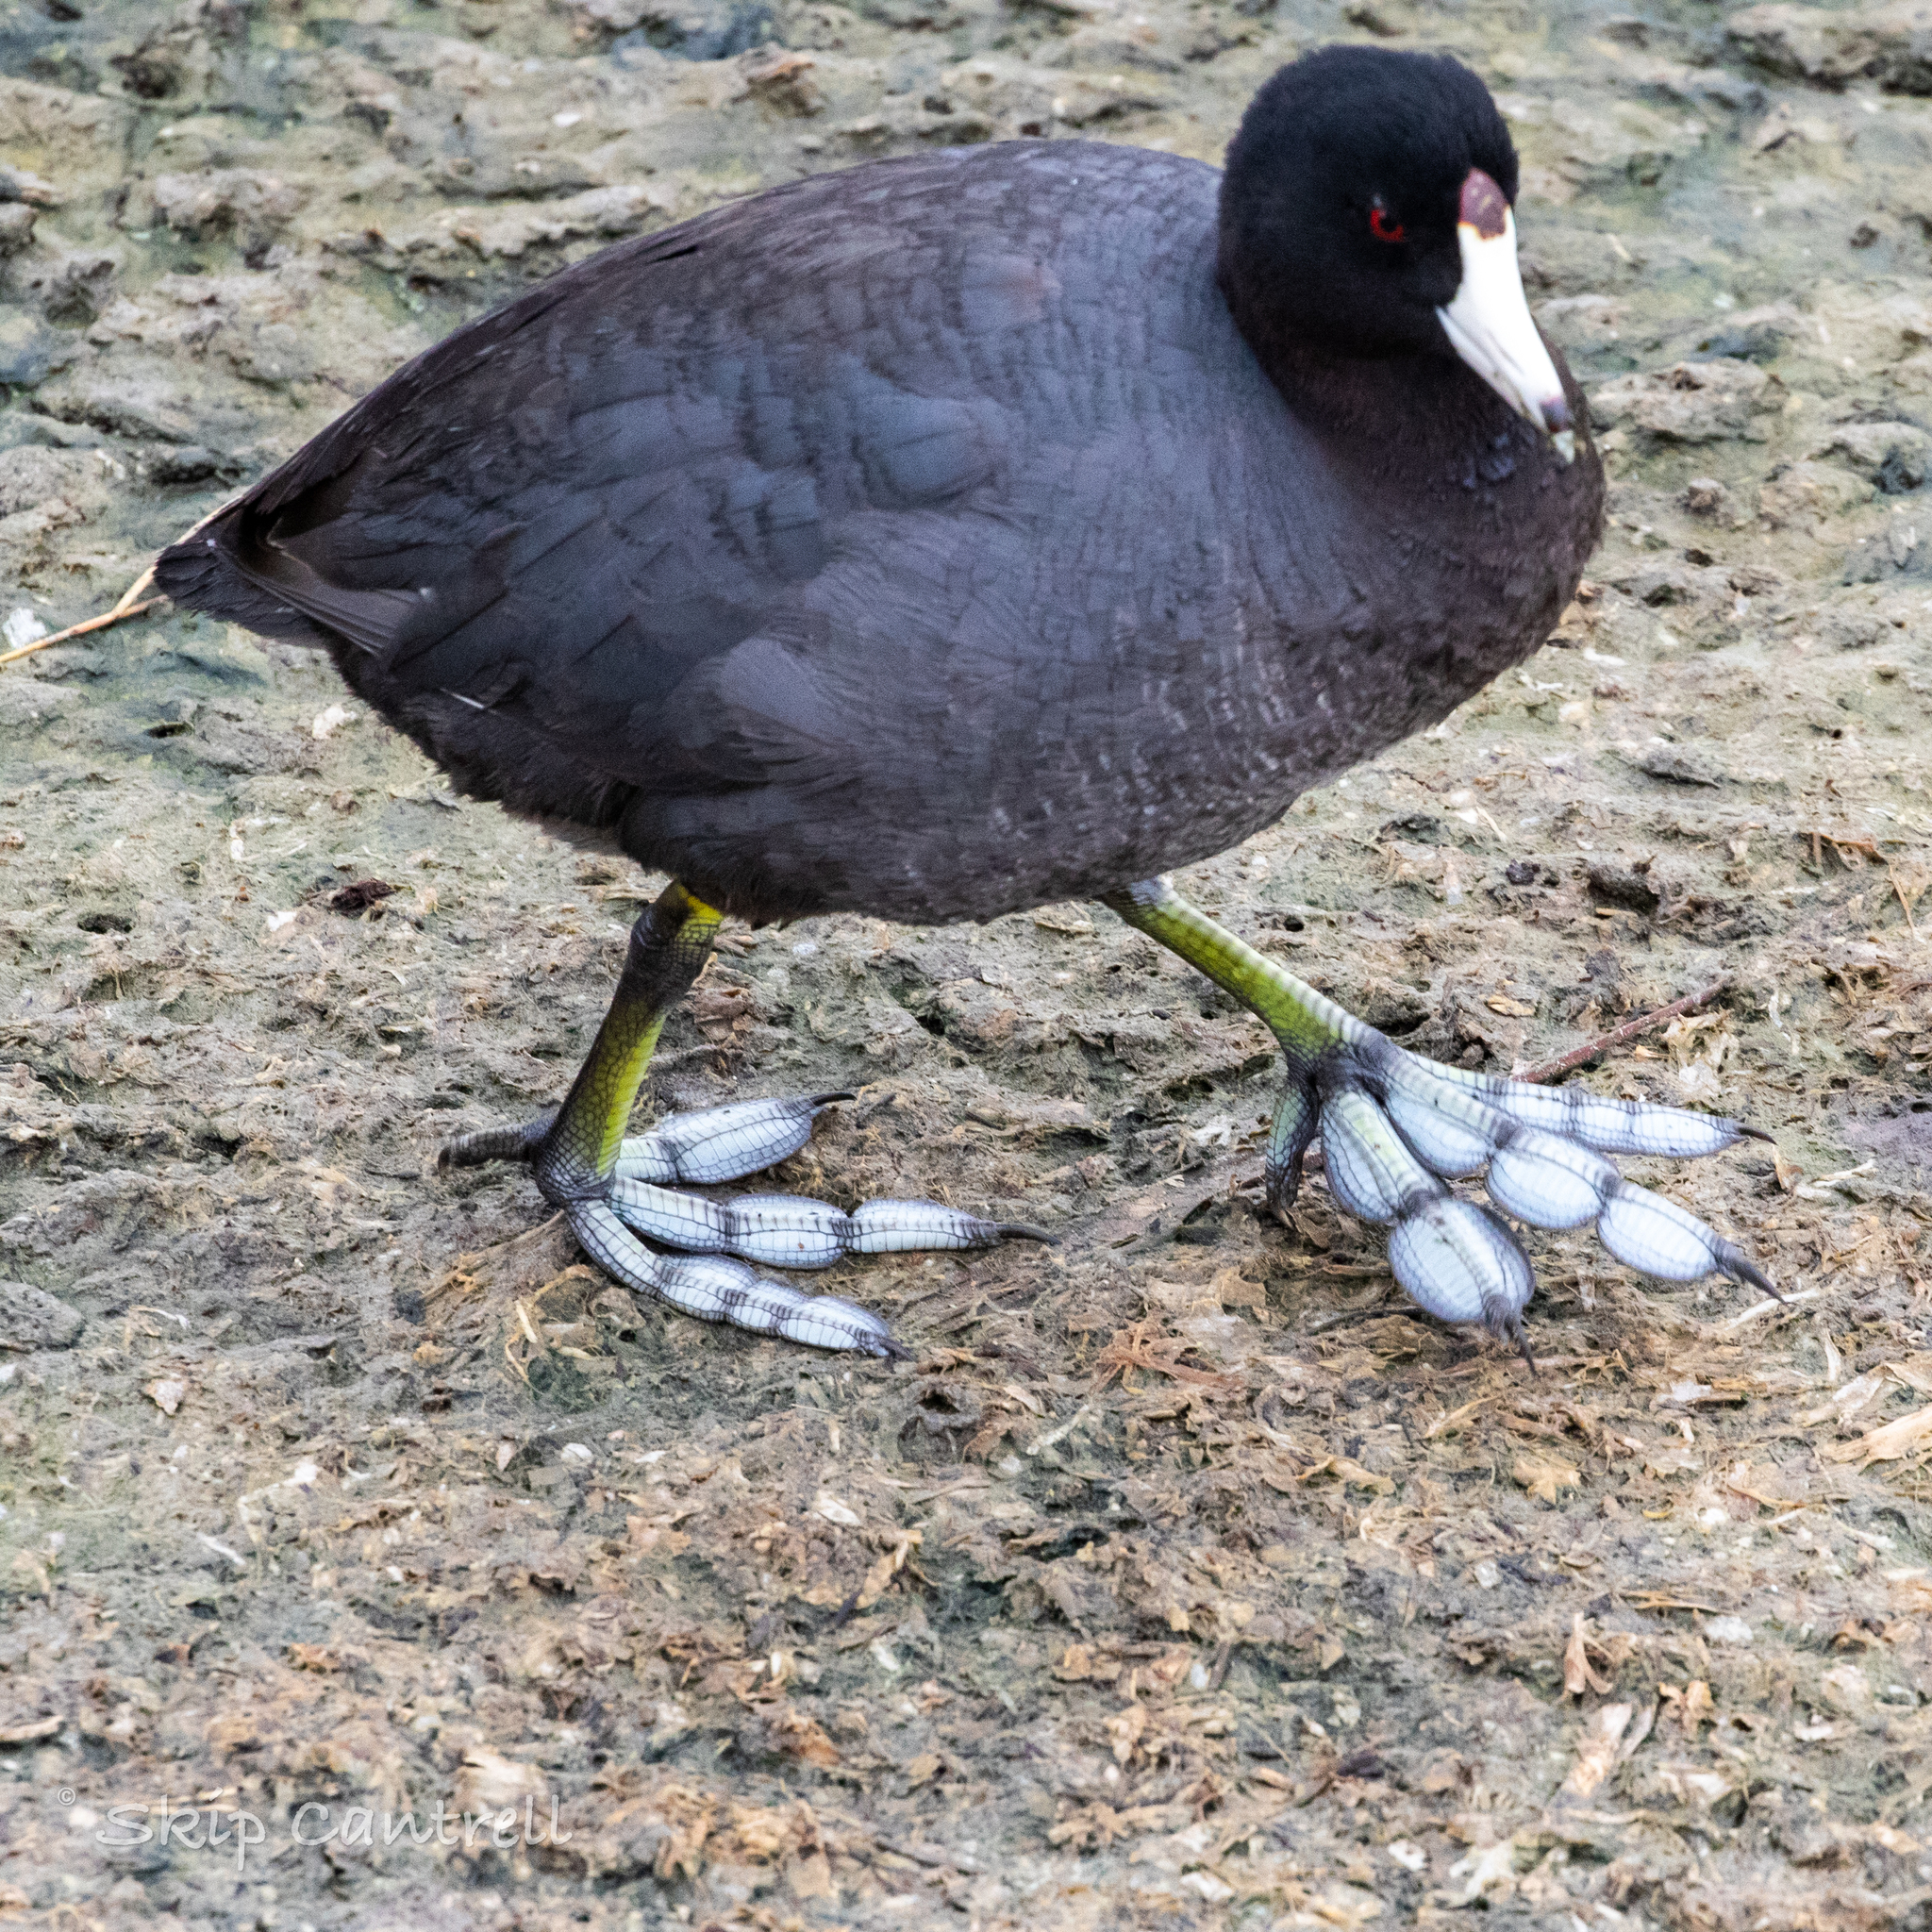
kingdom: Animalia
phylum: Chordata
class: Aves
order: Gruiformes
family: Rallidae
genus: Fulica
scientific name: Fulica americana
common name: American coot
